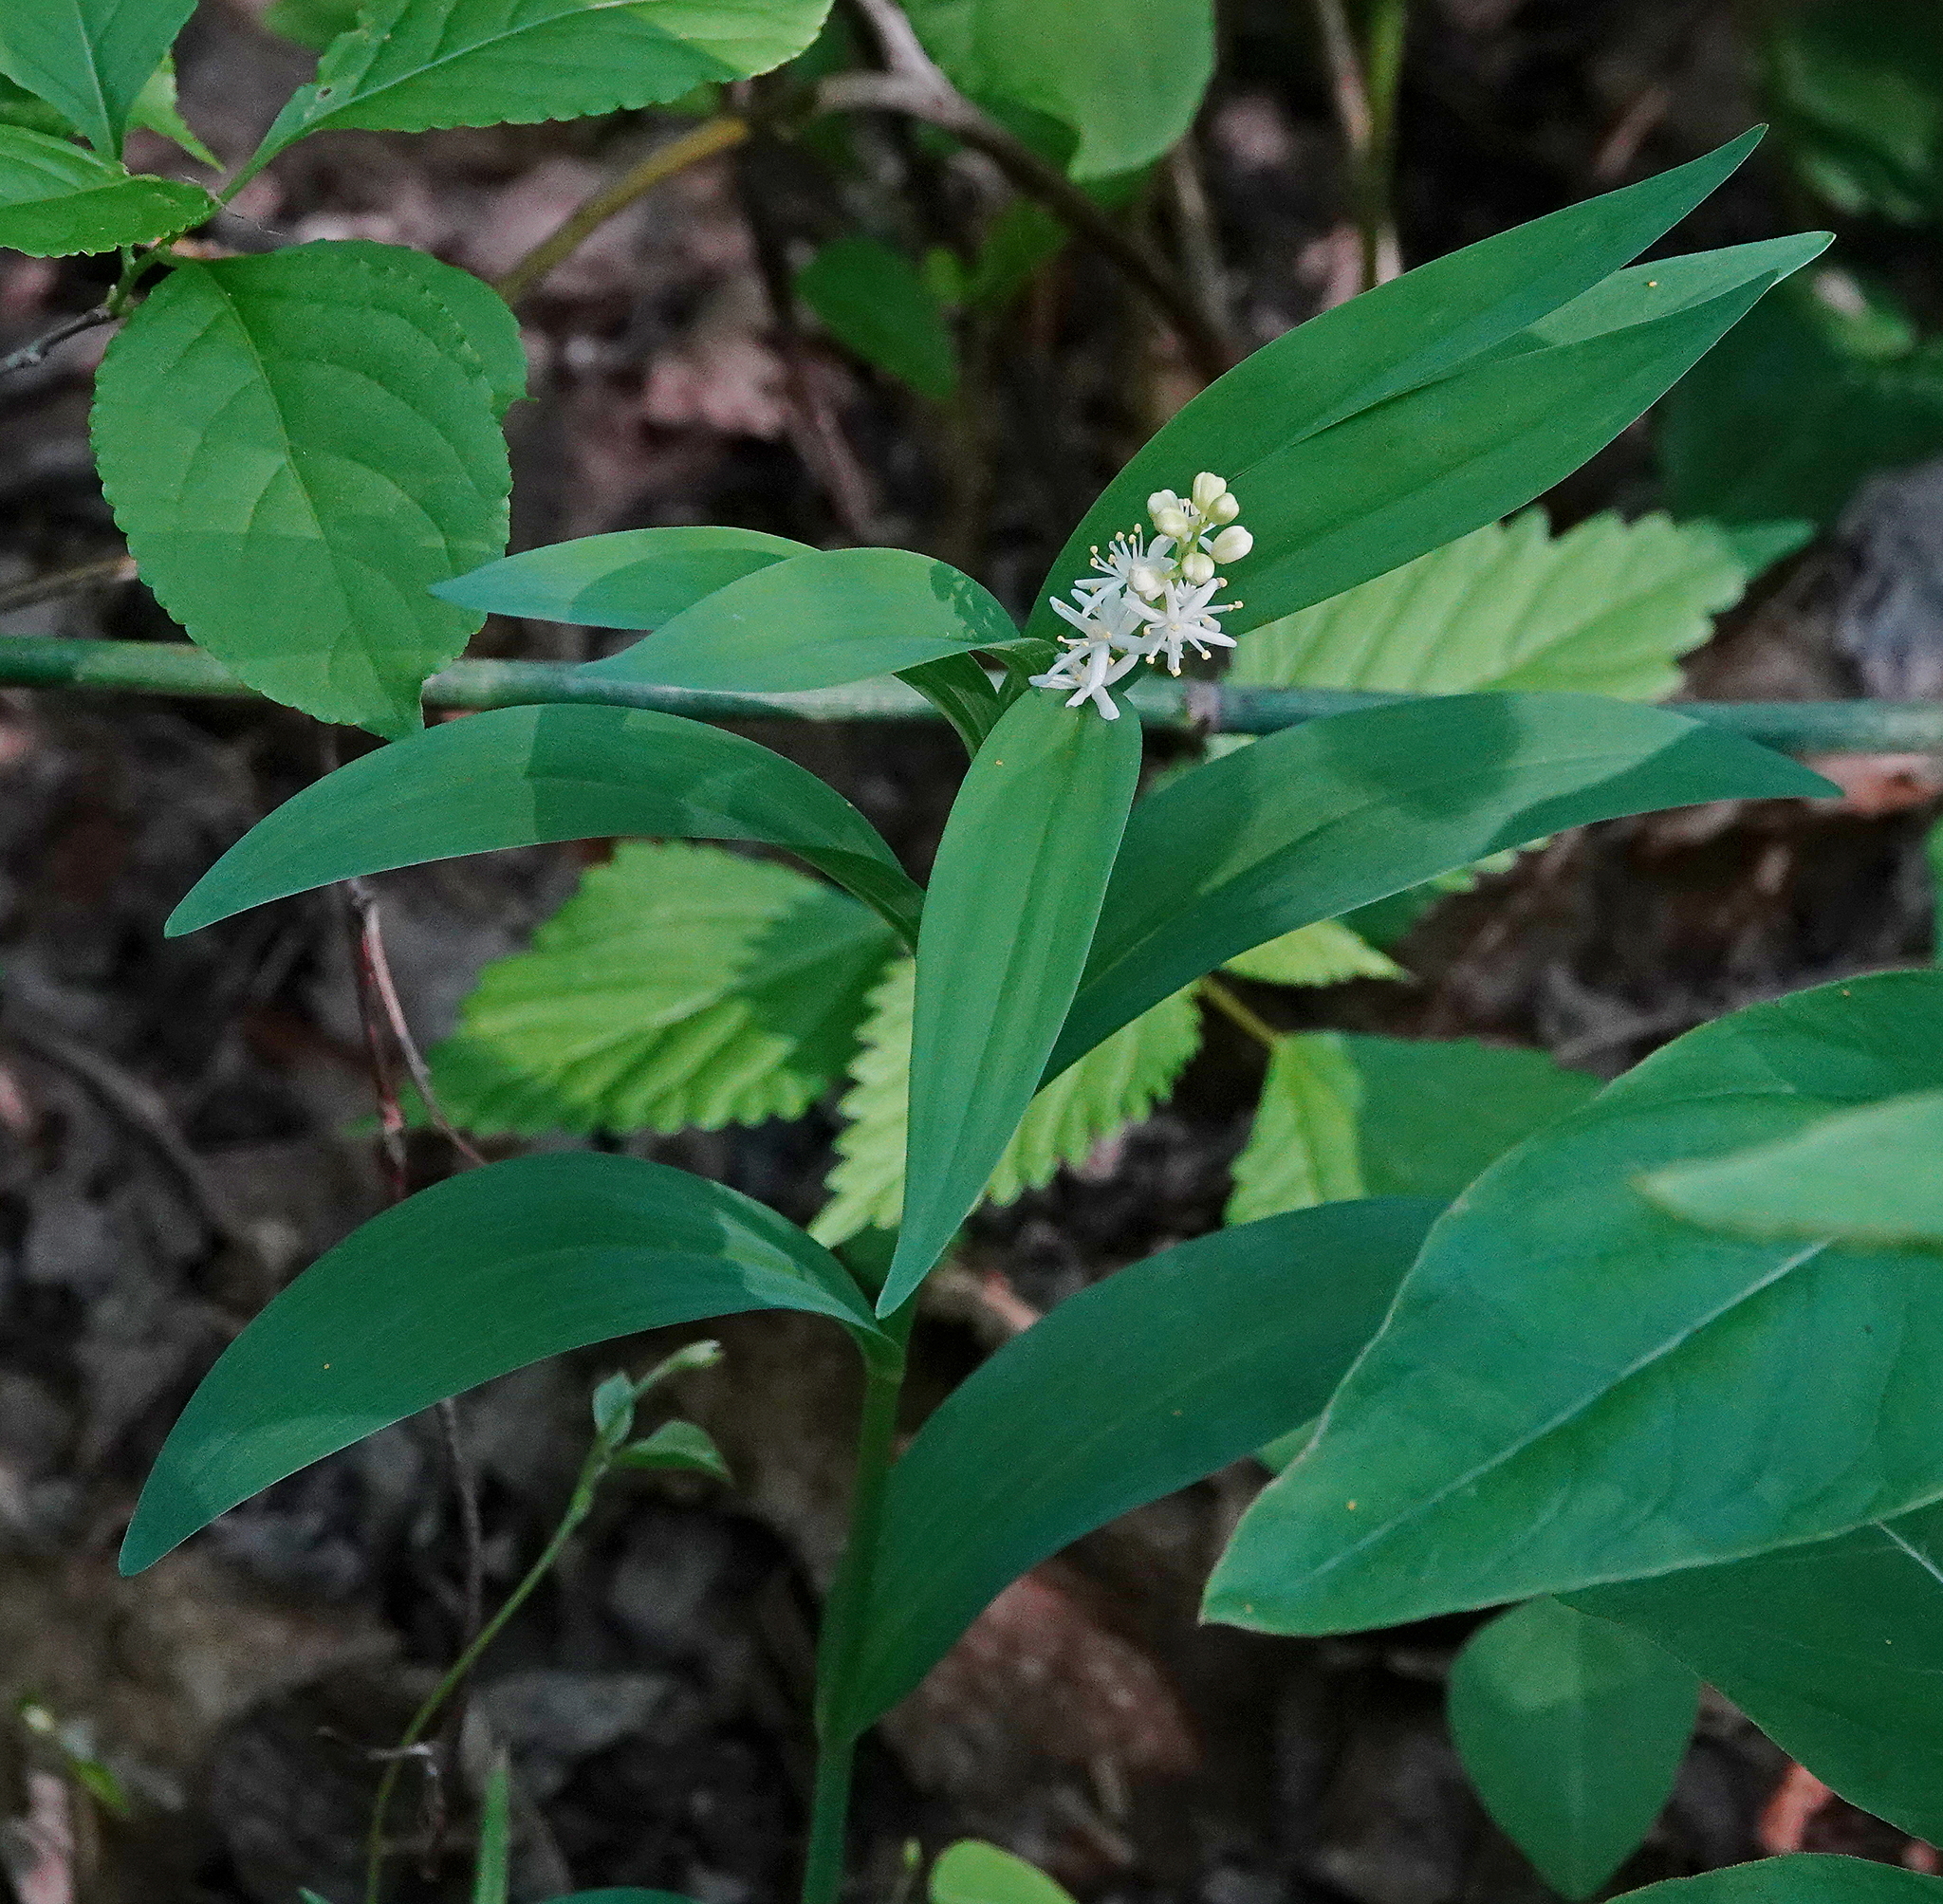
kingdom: Plantae
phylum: Tracheophyta
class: Liliopsida
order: Asparagales
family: Asparagaceae
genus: Maianthemum
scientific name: Maianthemum stellatum
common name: Little false solomon's seal
